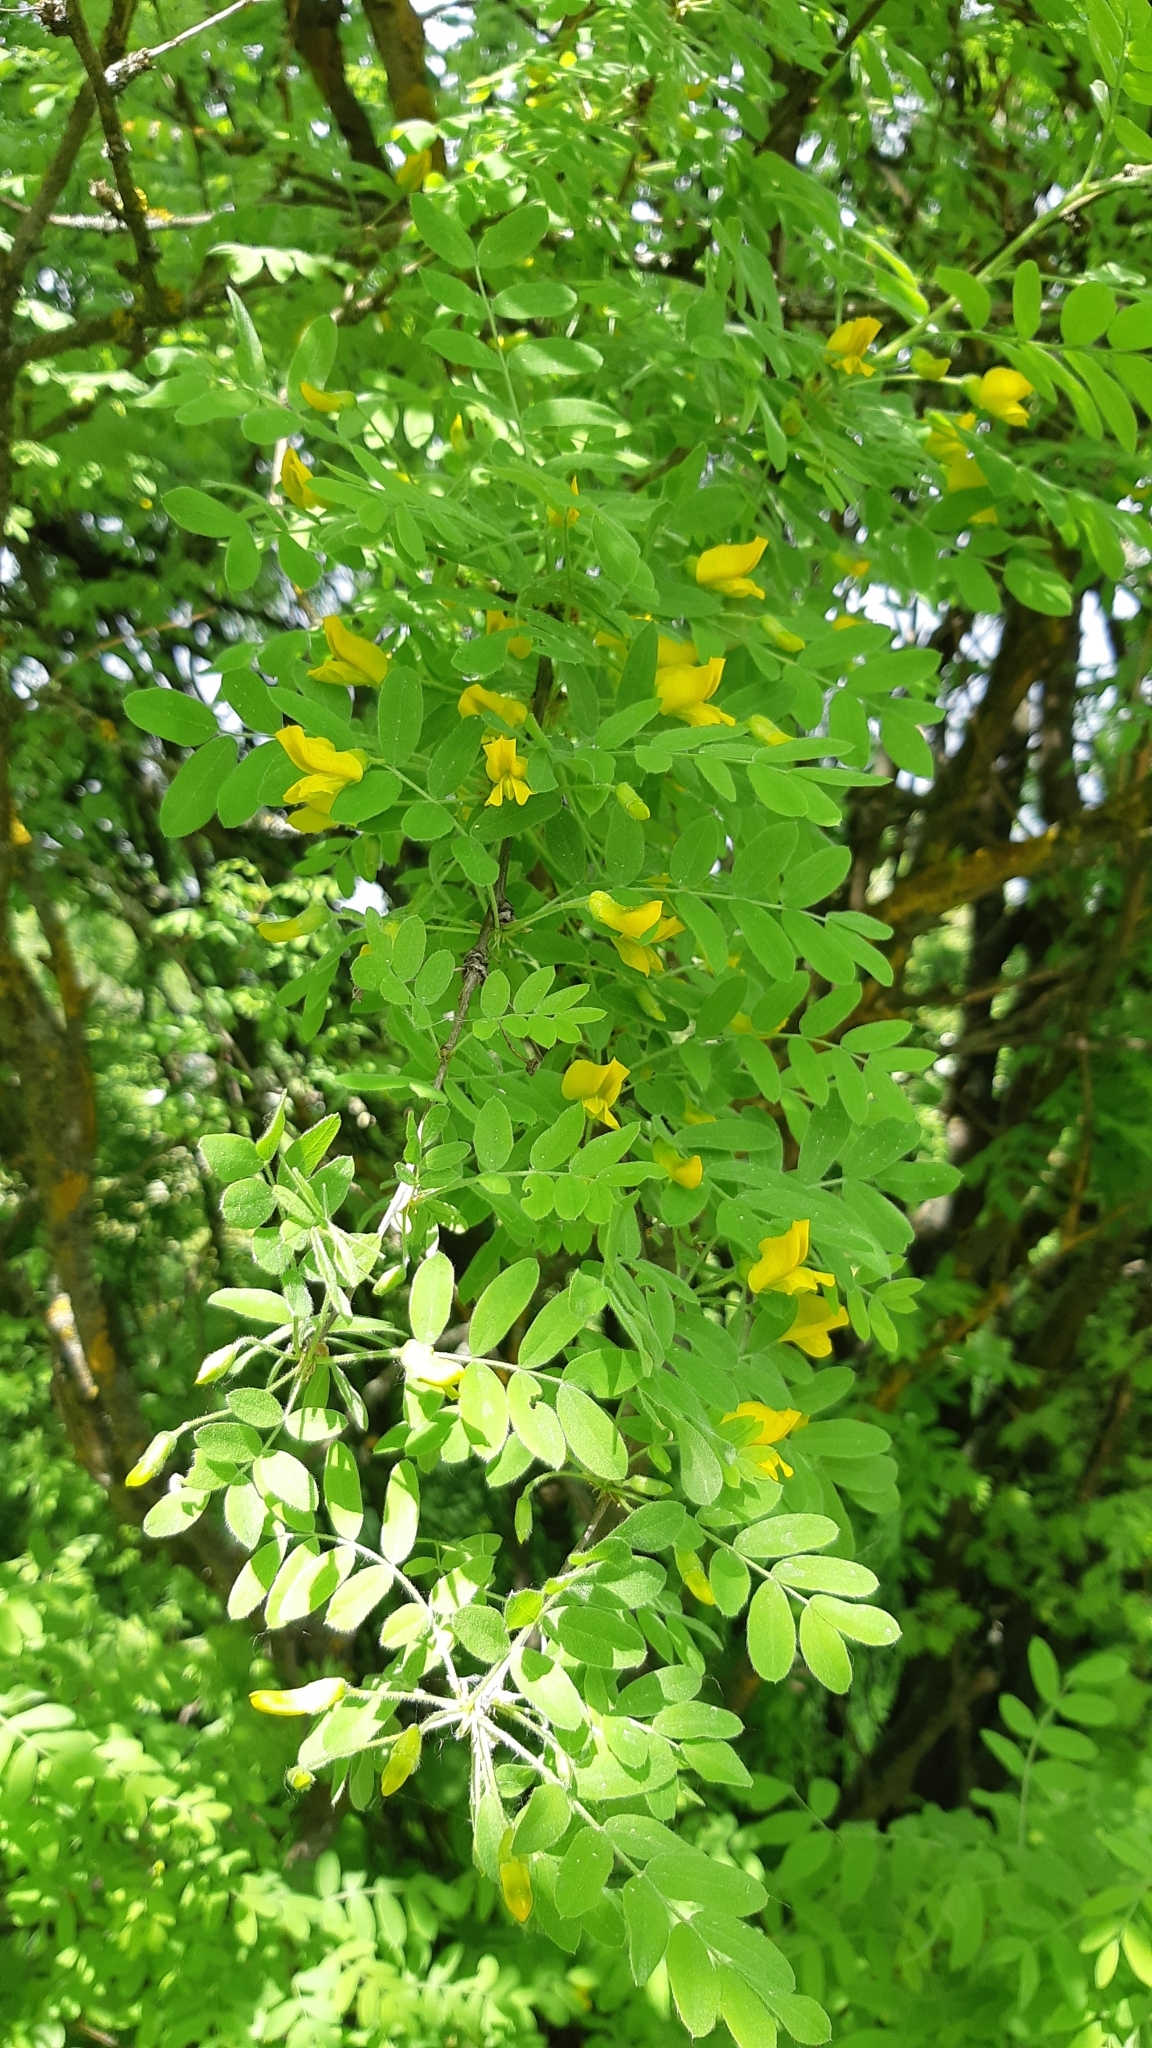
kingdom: Plantae
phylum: Tracheophyta
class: Magnoliopsida
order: Fabales
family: Fabaceae
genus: Caragana
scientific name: Caragana arborescens
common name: Siberian peashrub
